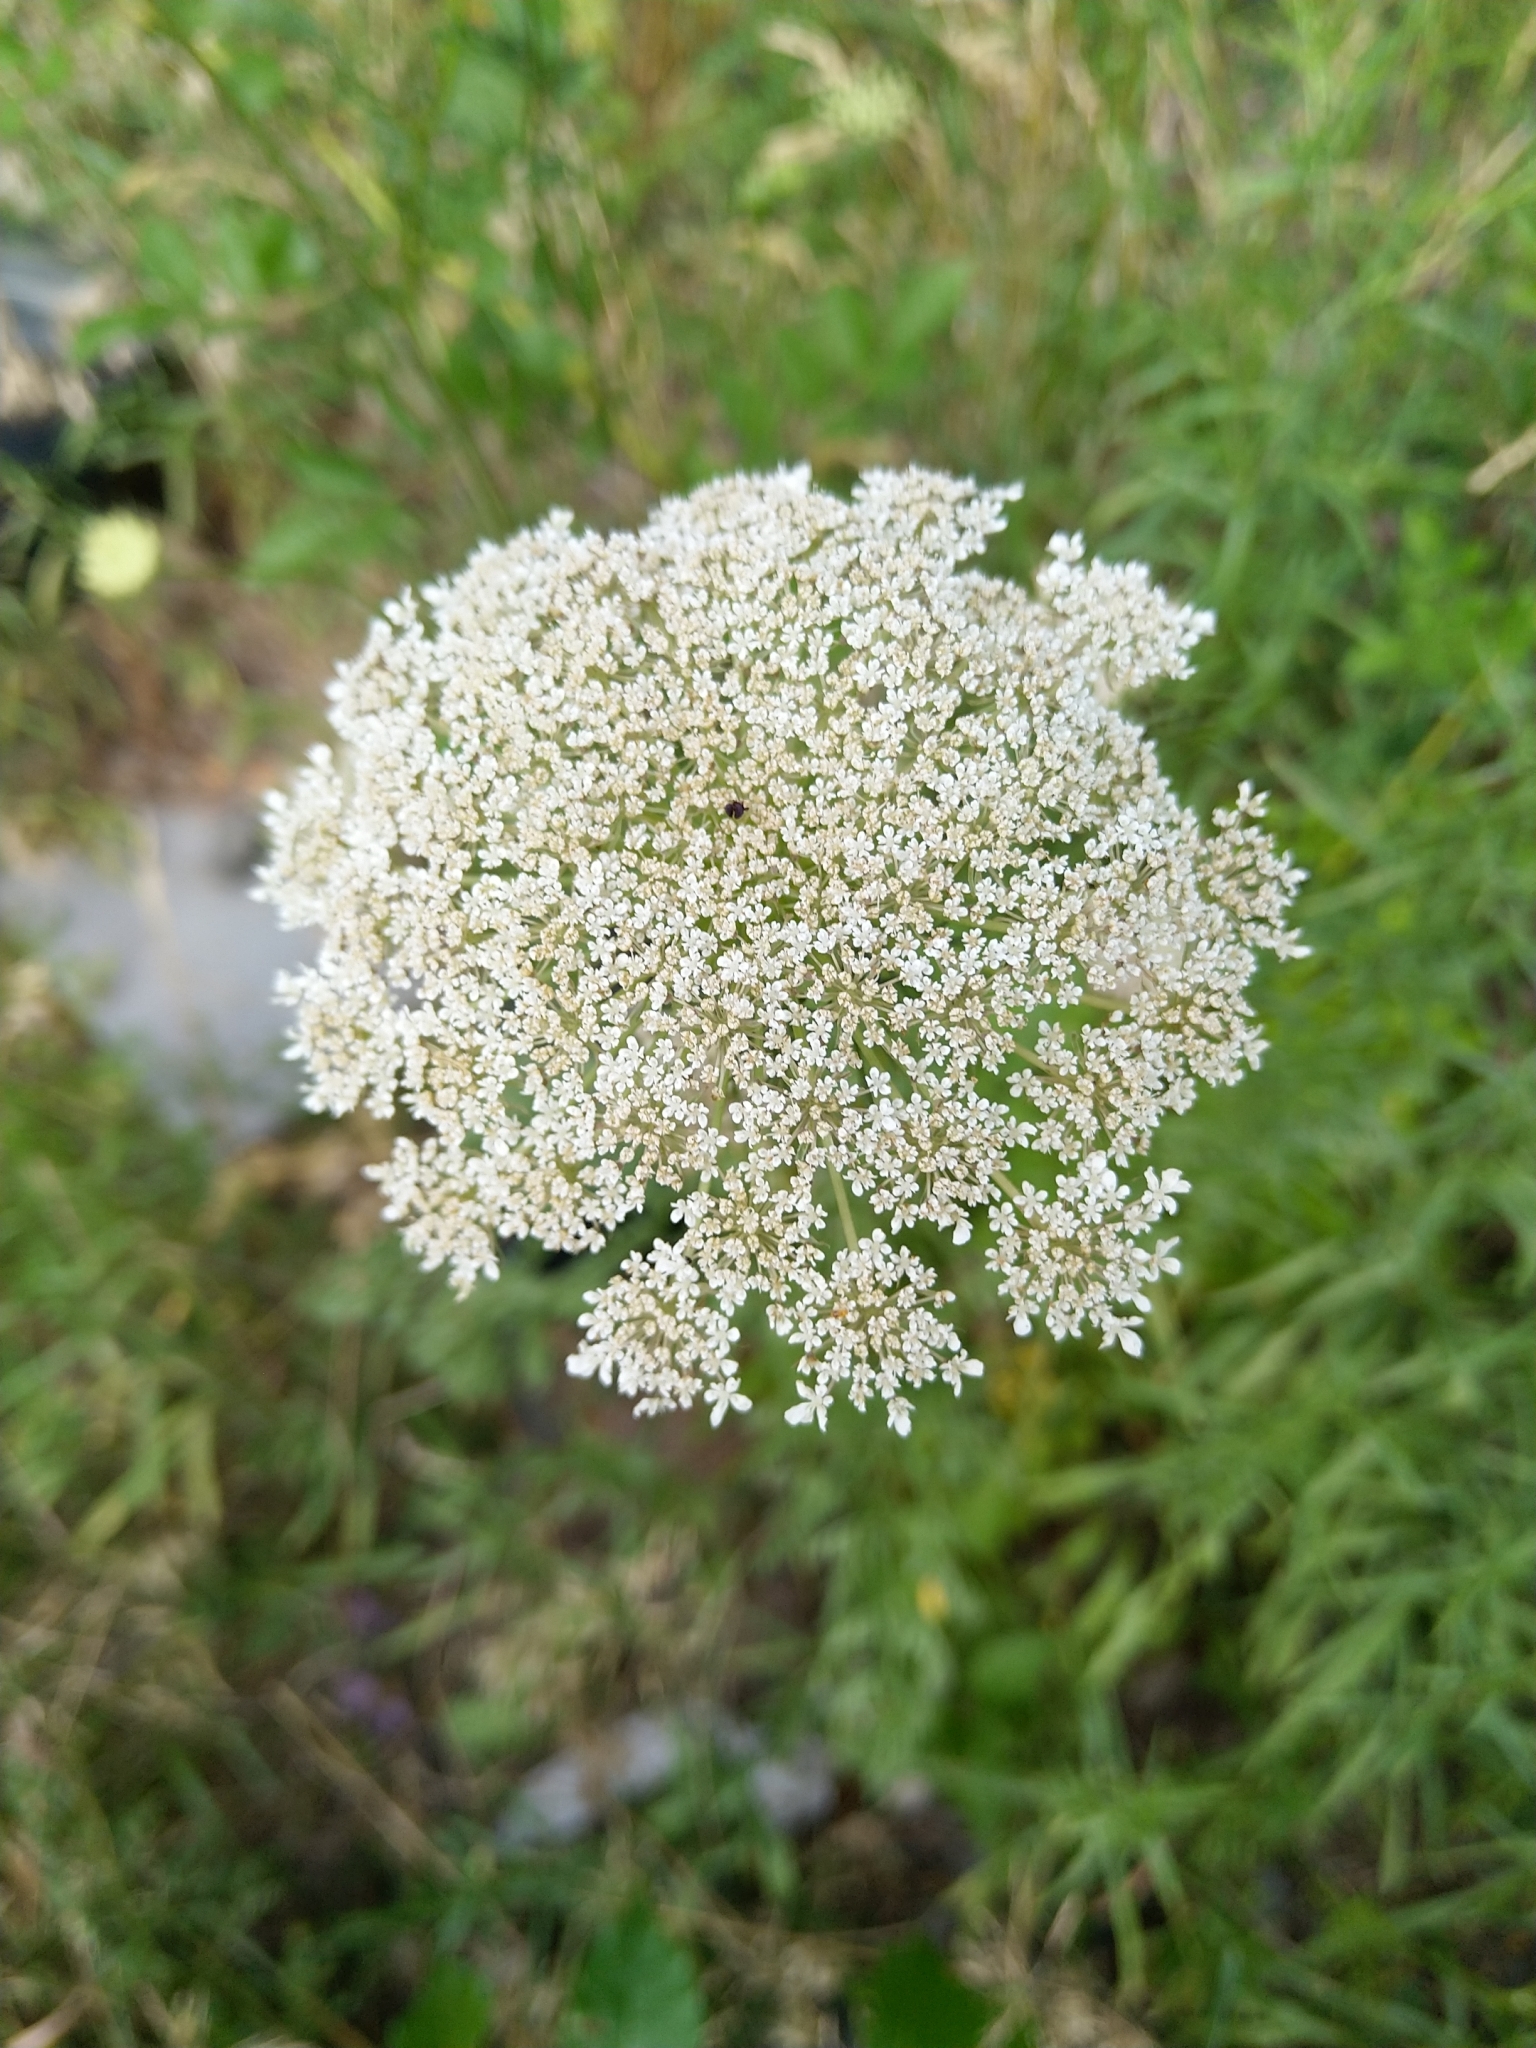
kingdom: Plantae
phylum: Tracheophyta
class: Magnoliopsida
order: Apiales
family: Apiaceae
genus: Daucus
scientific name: Daucus carota
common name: Wild carrot
